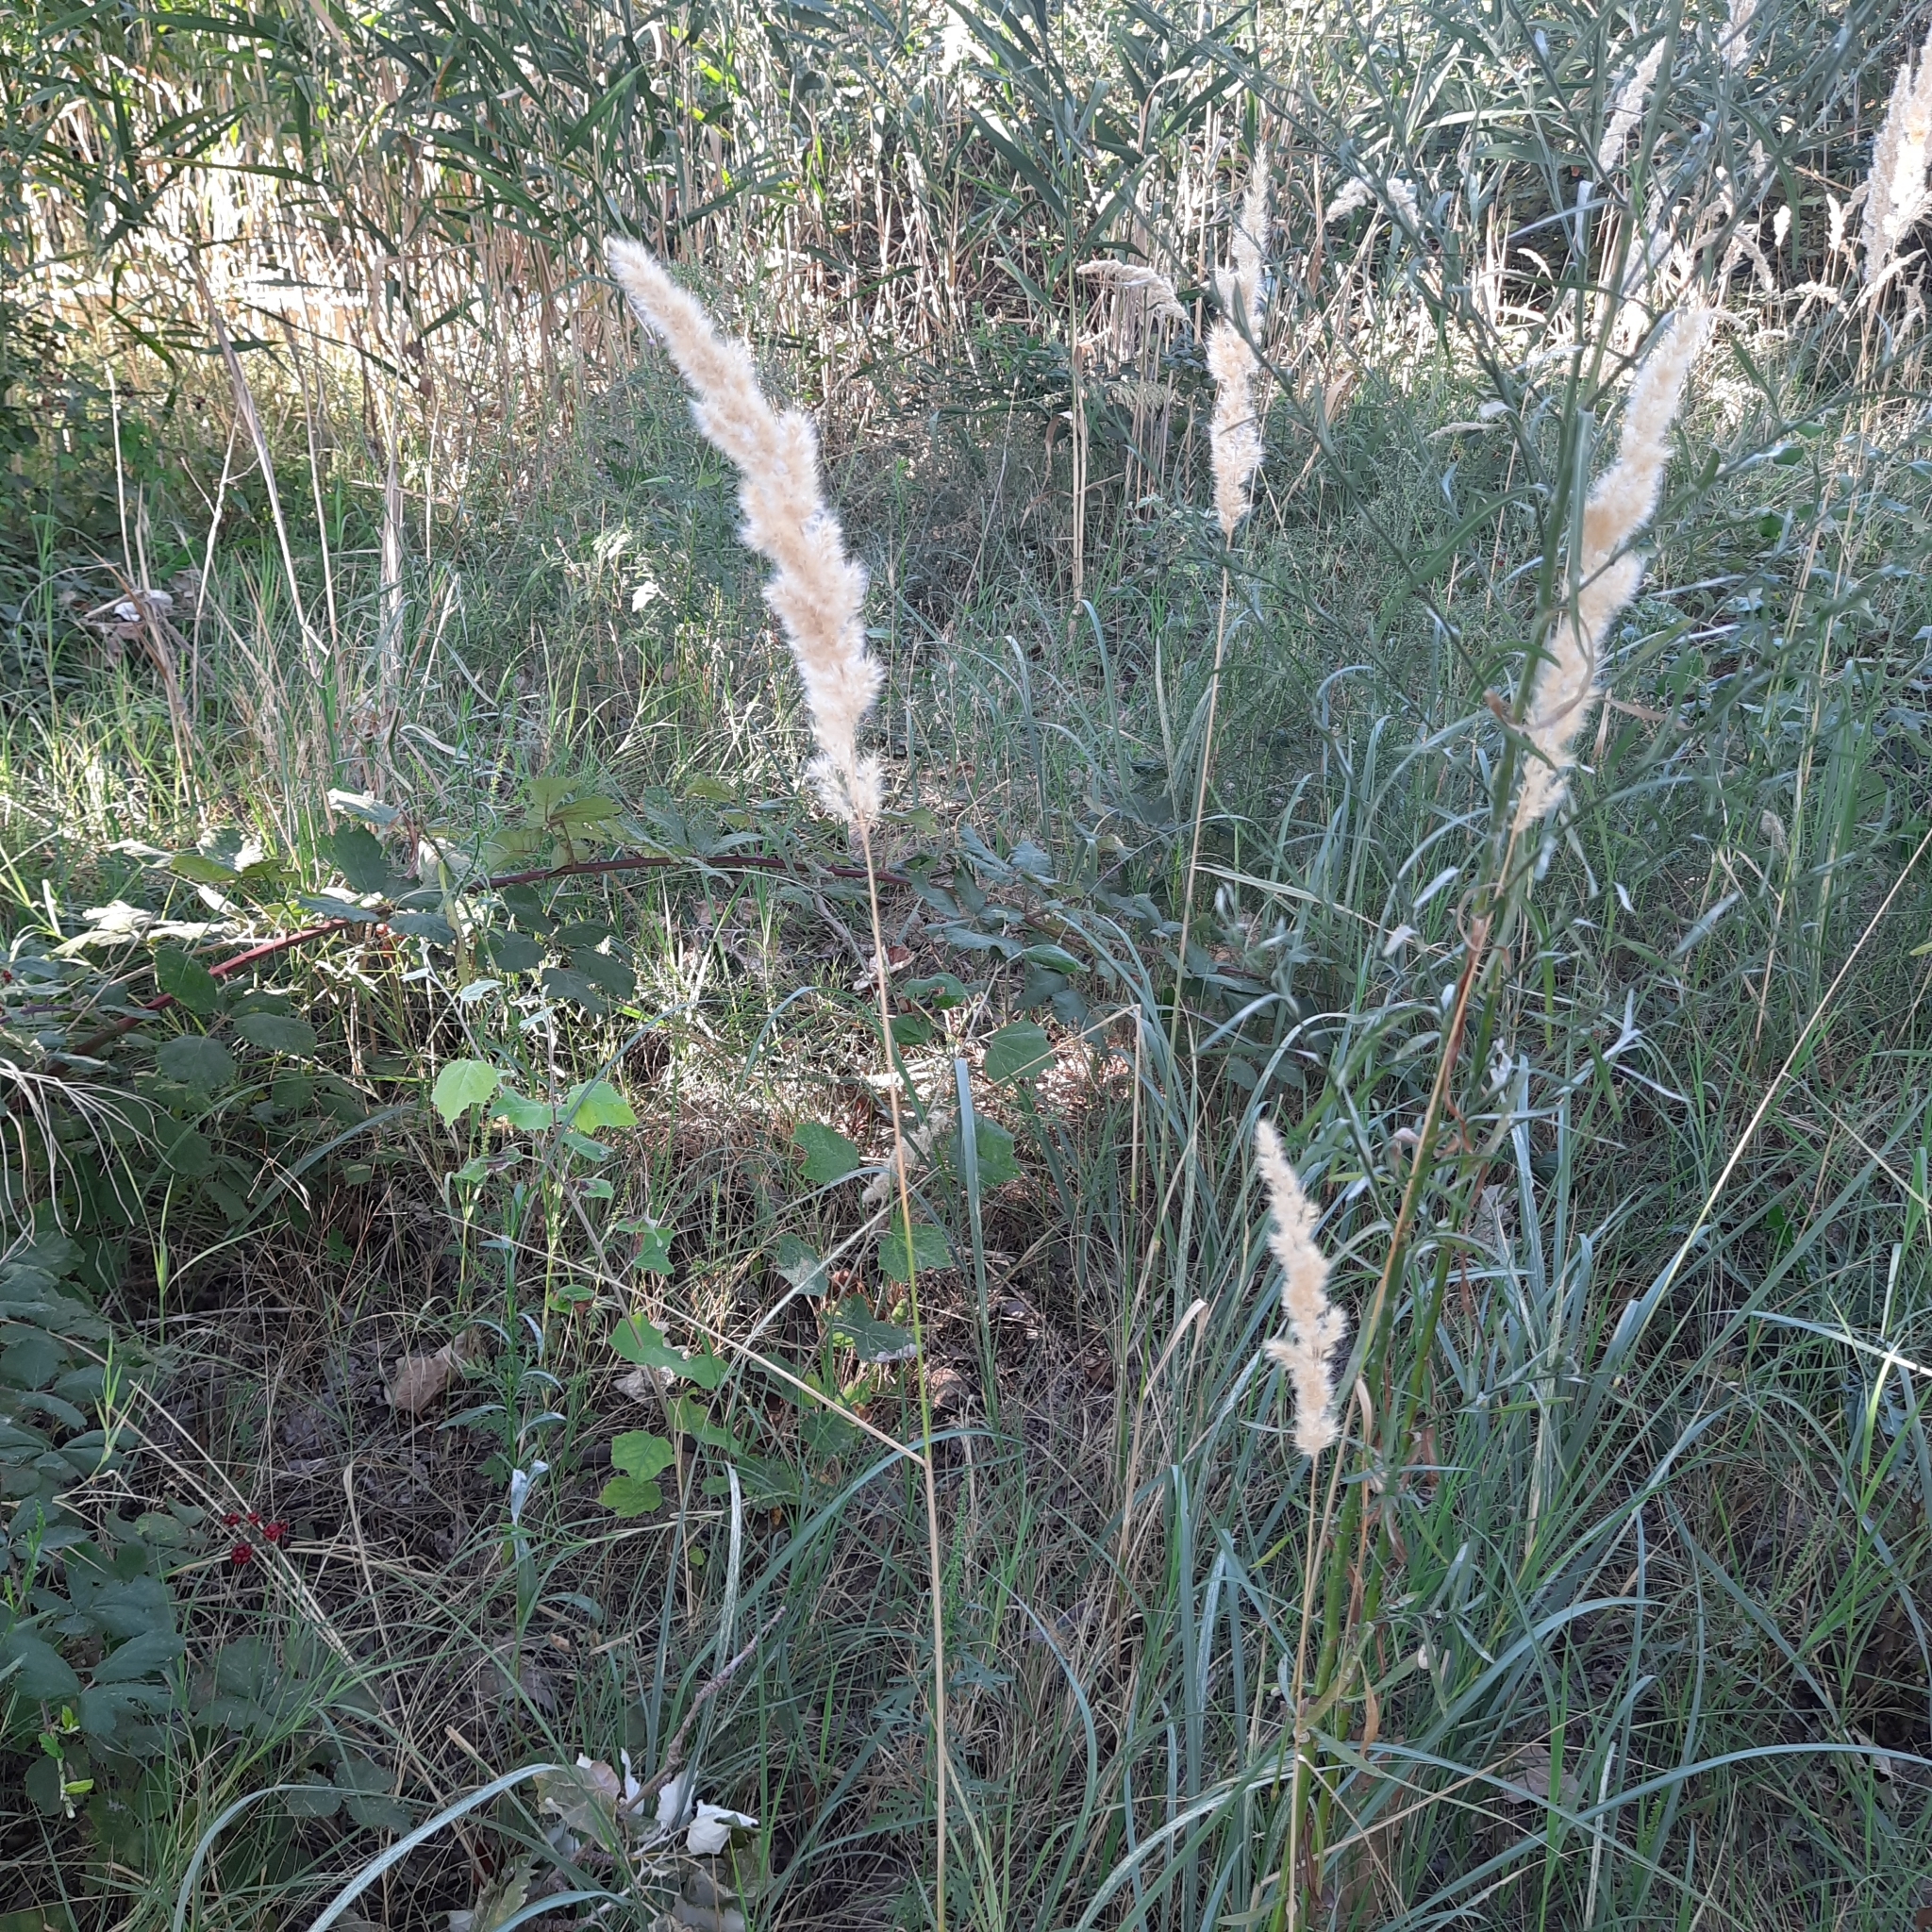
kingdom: Plantae
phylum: Tracheophyta
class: Liliopsida
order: Poales
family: Poaceae
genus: Calamagrostis
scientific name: Calamagrostis epigejos
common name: Wood small-reed
